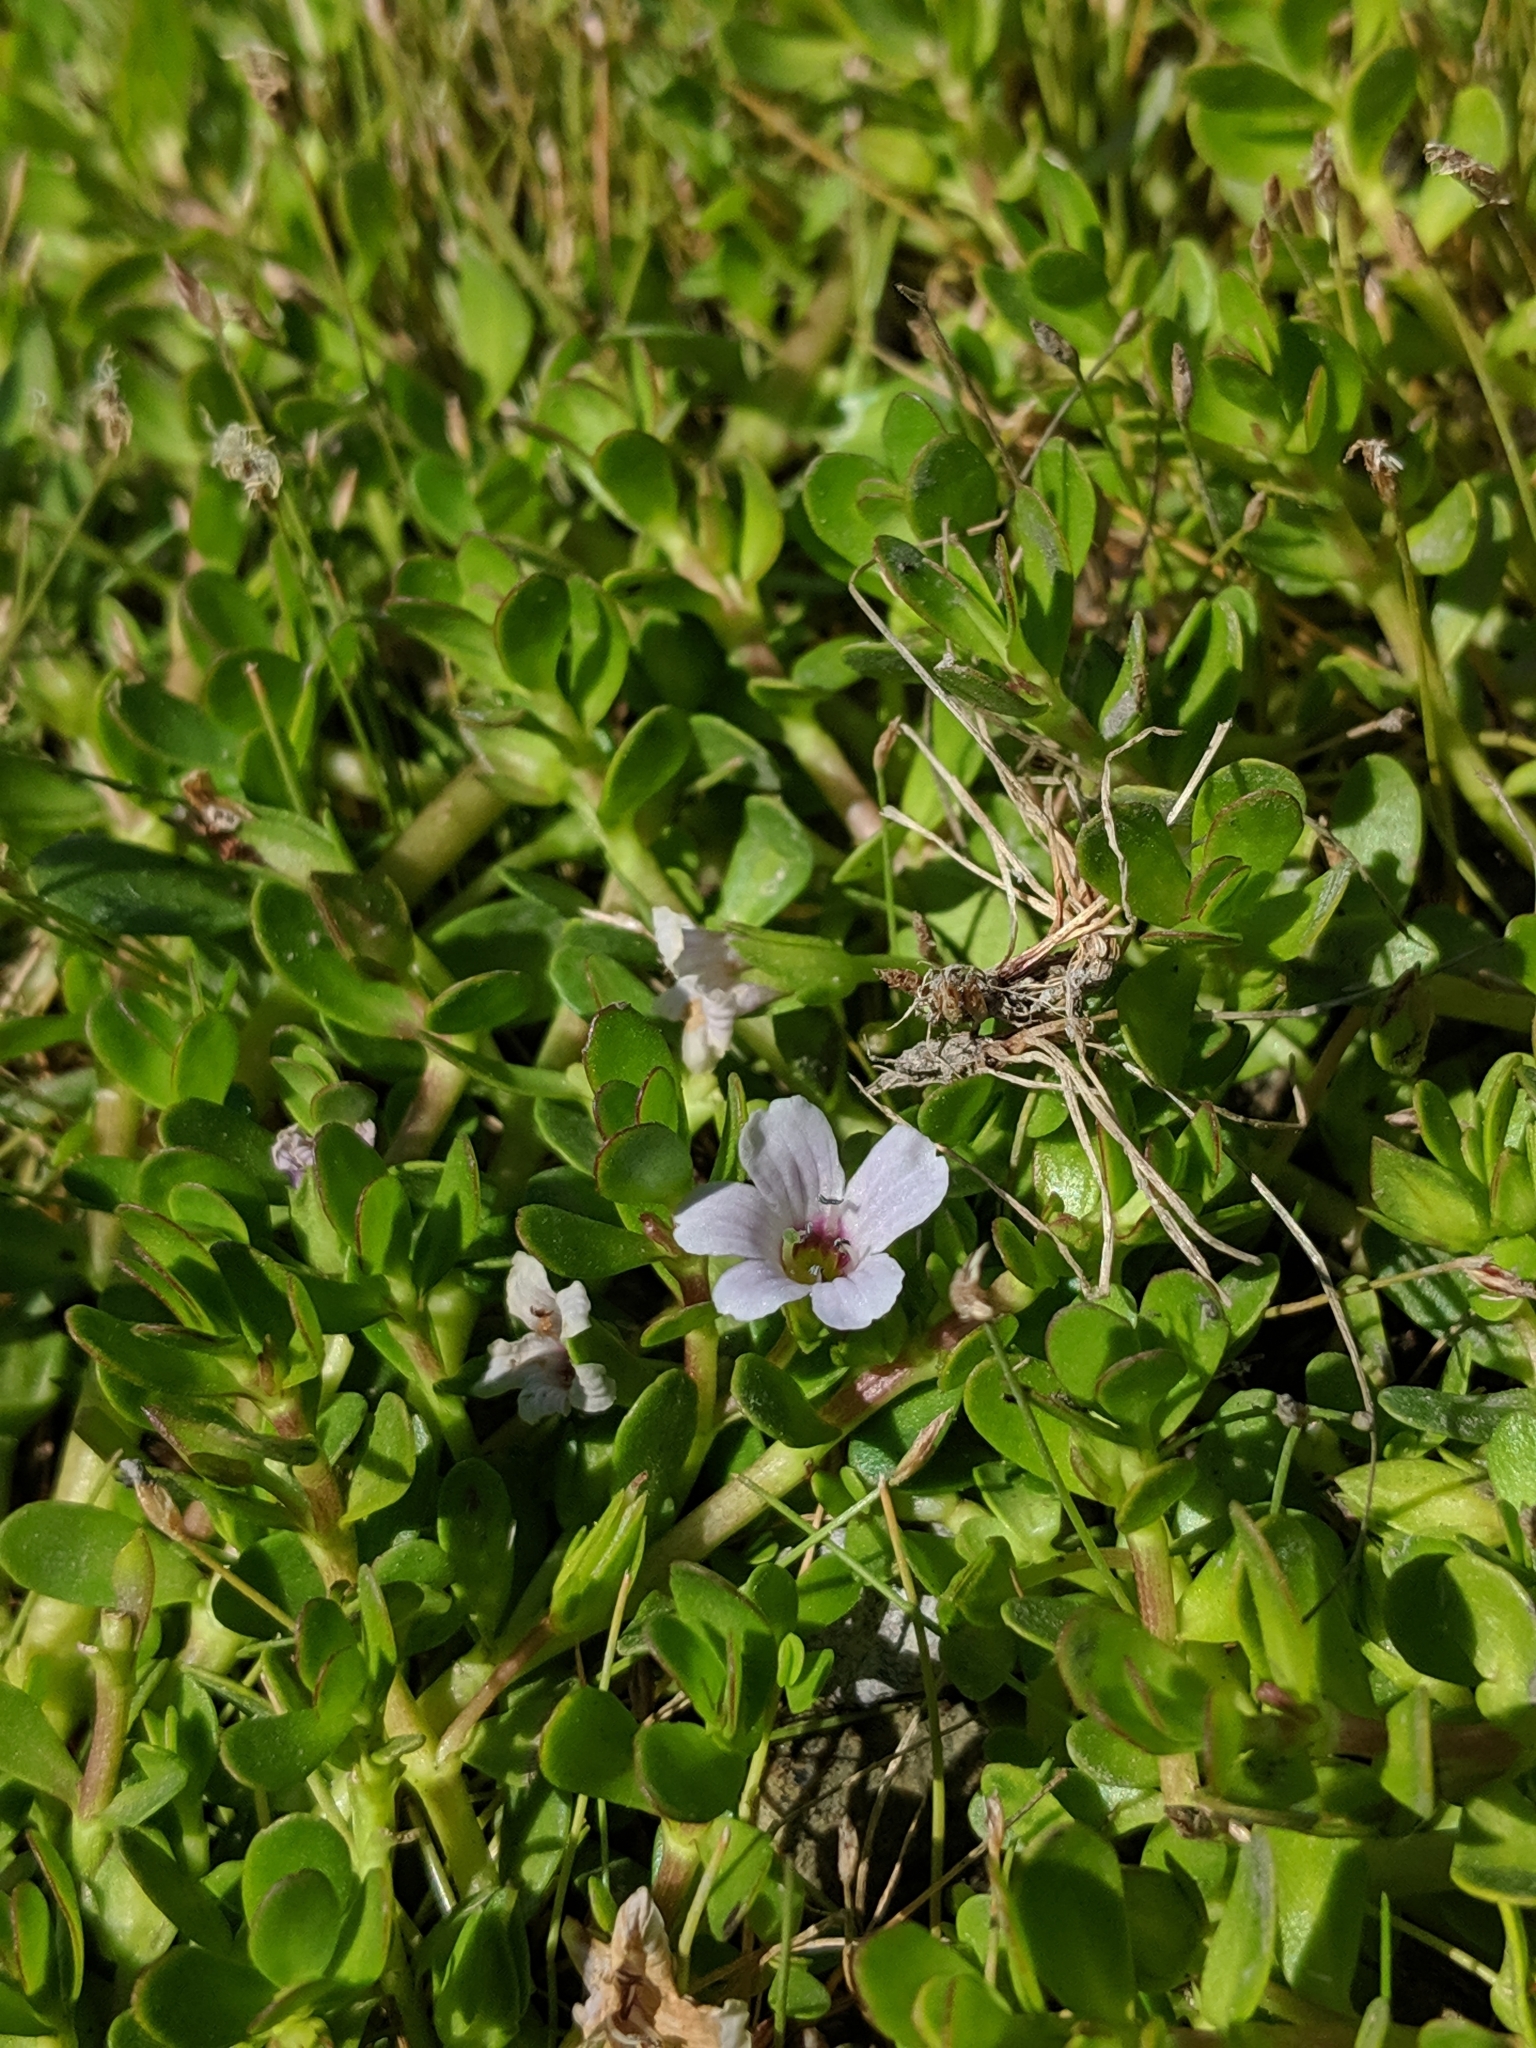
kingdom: Plantae
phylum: Tracheophyta
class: Magnoliopsida
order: Lamiales
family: Plantaginaceae
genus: Bacopa
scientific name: Bacopa monnieri
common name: Indian-pennywort
